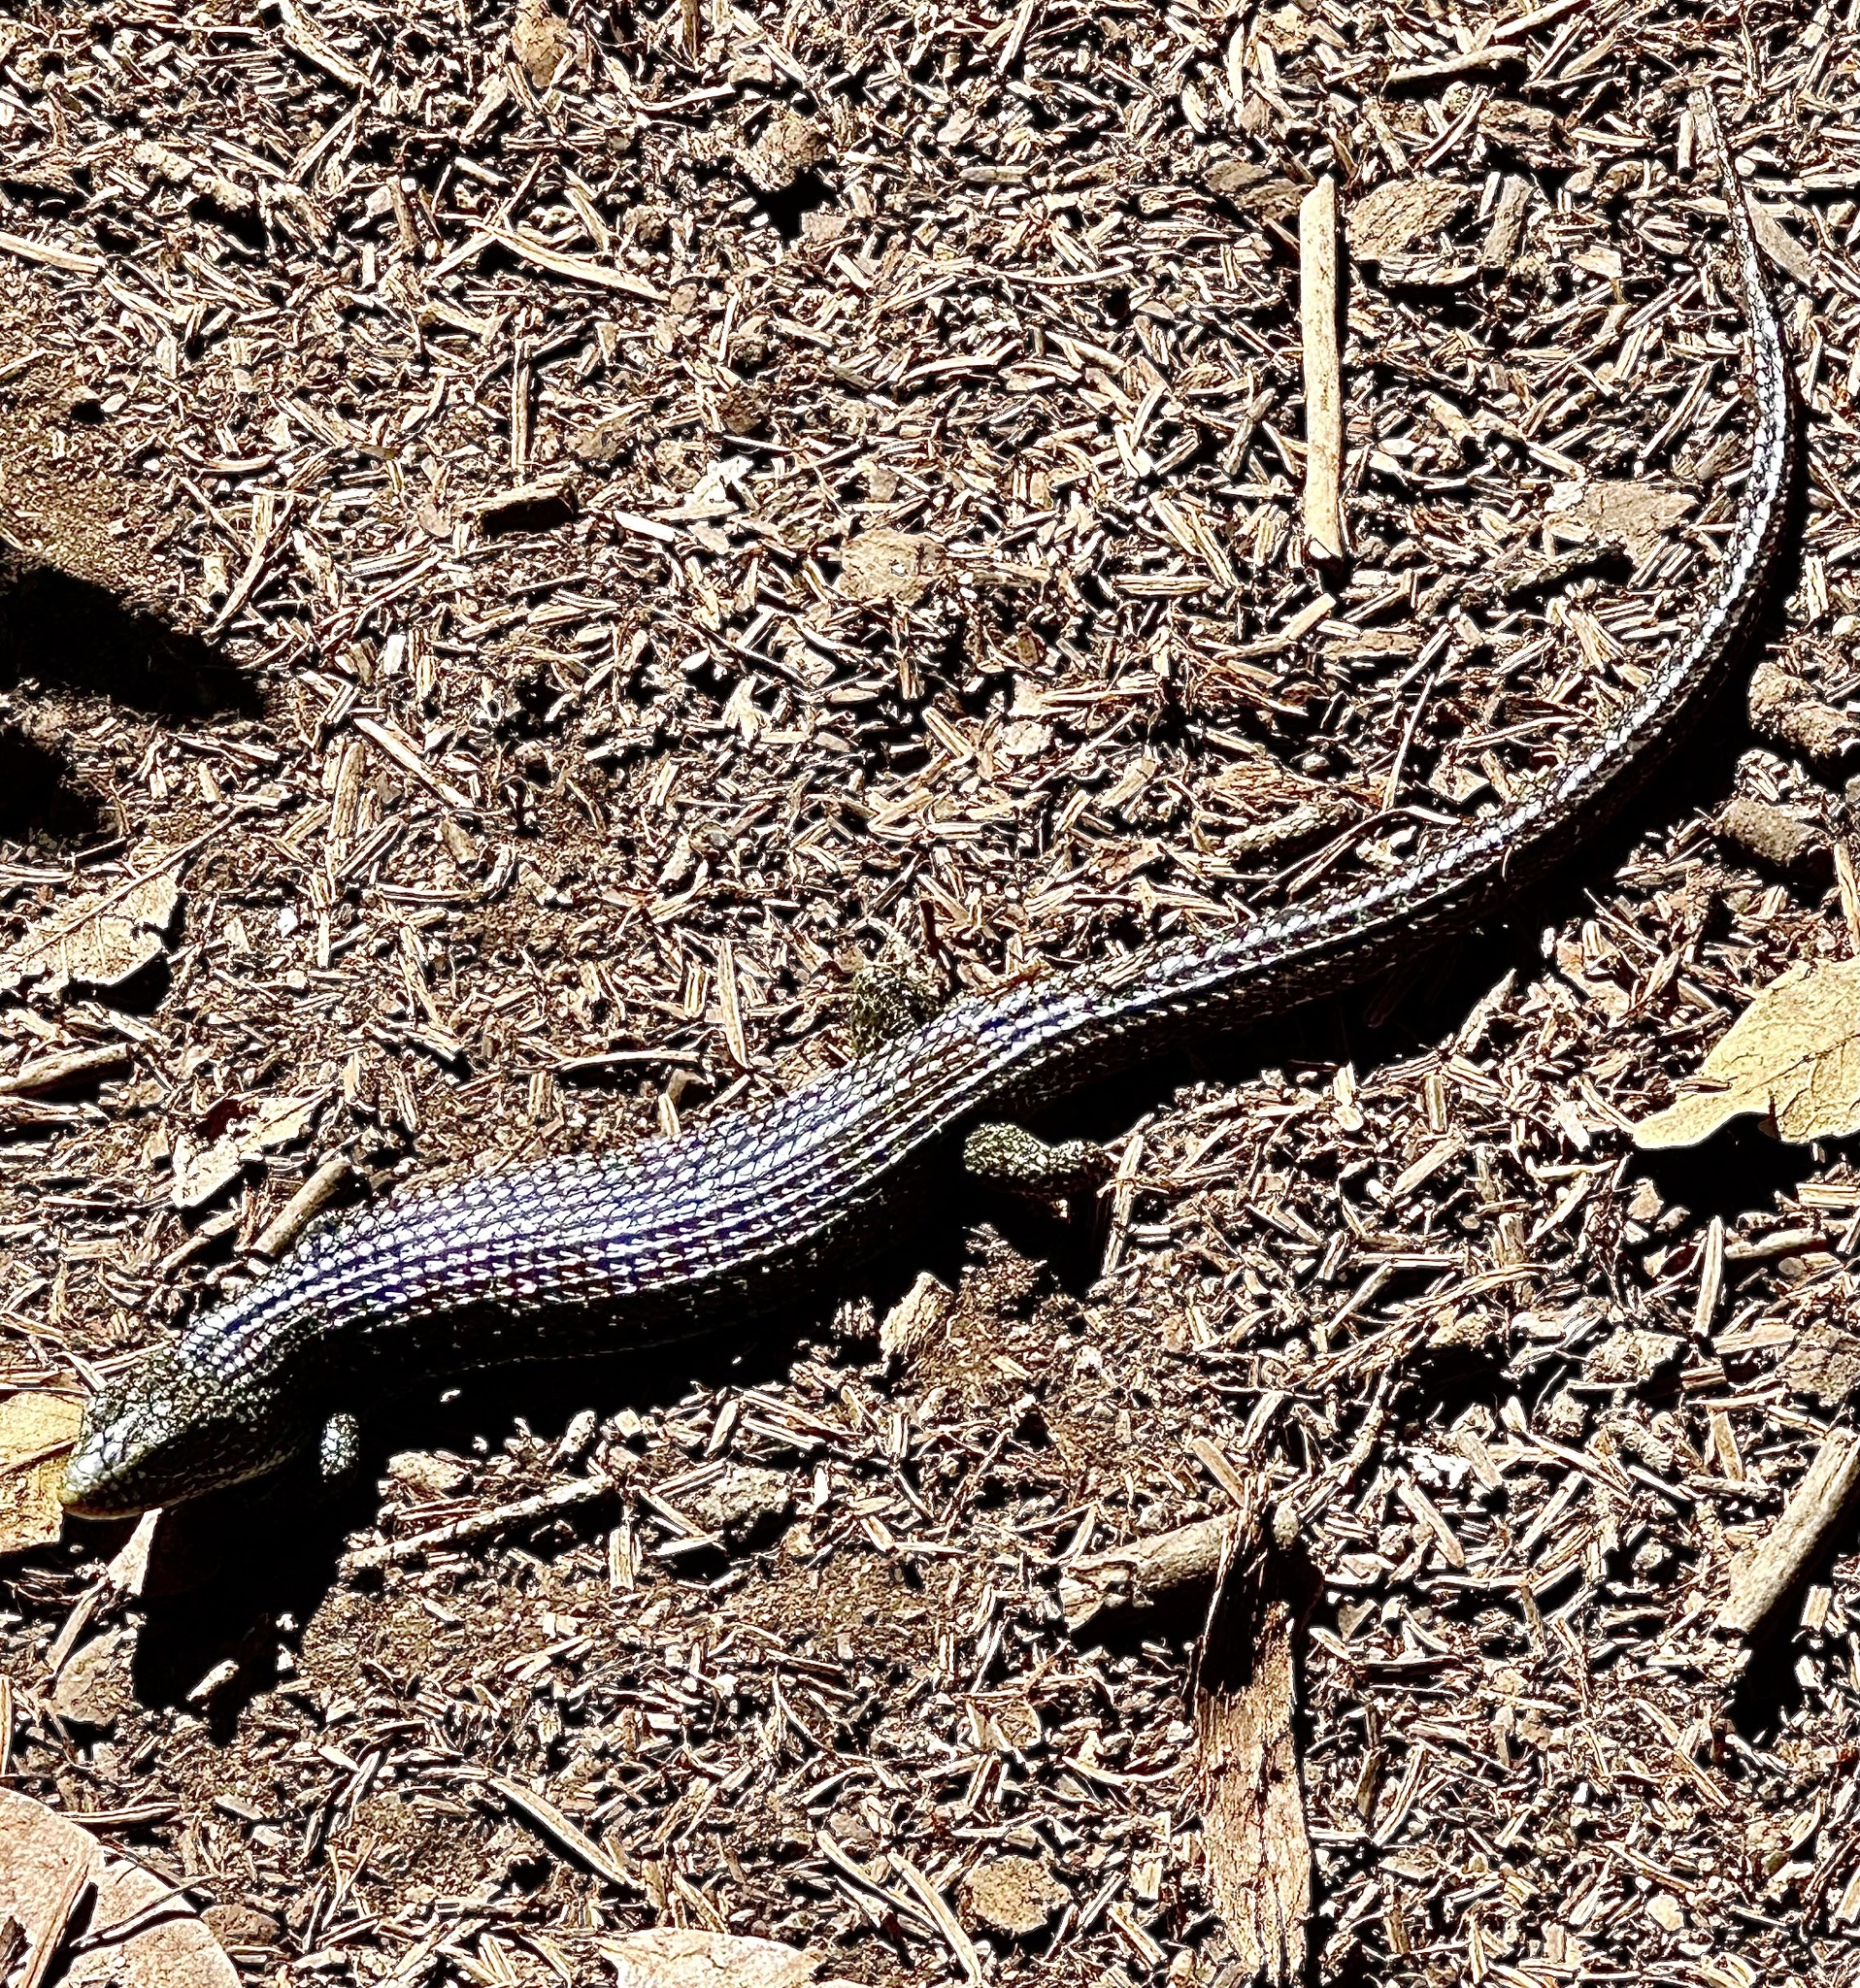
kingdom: Animalia
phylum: Chordata
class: Squamata
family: Anguidae
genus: Elgaria
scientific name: Elgaria coerulea
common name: Northern alligator lizard
